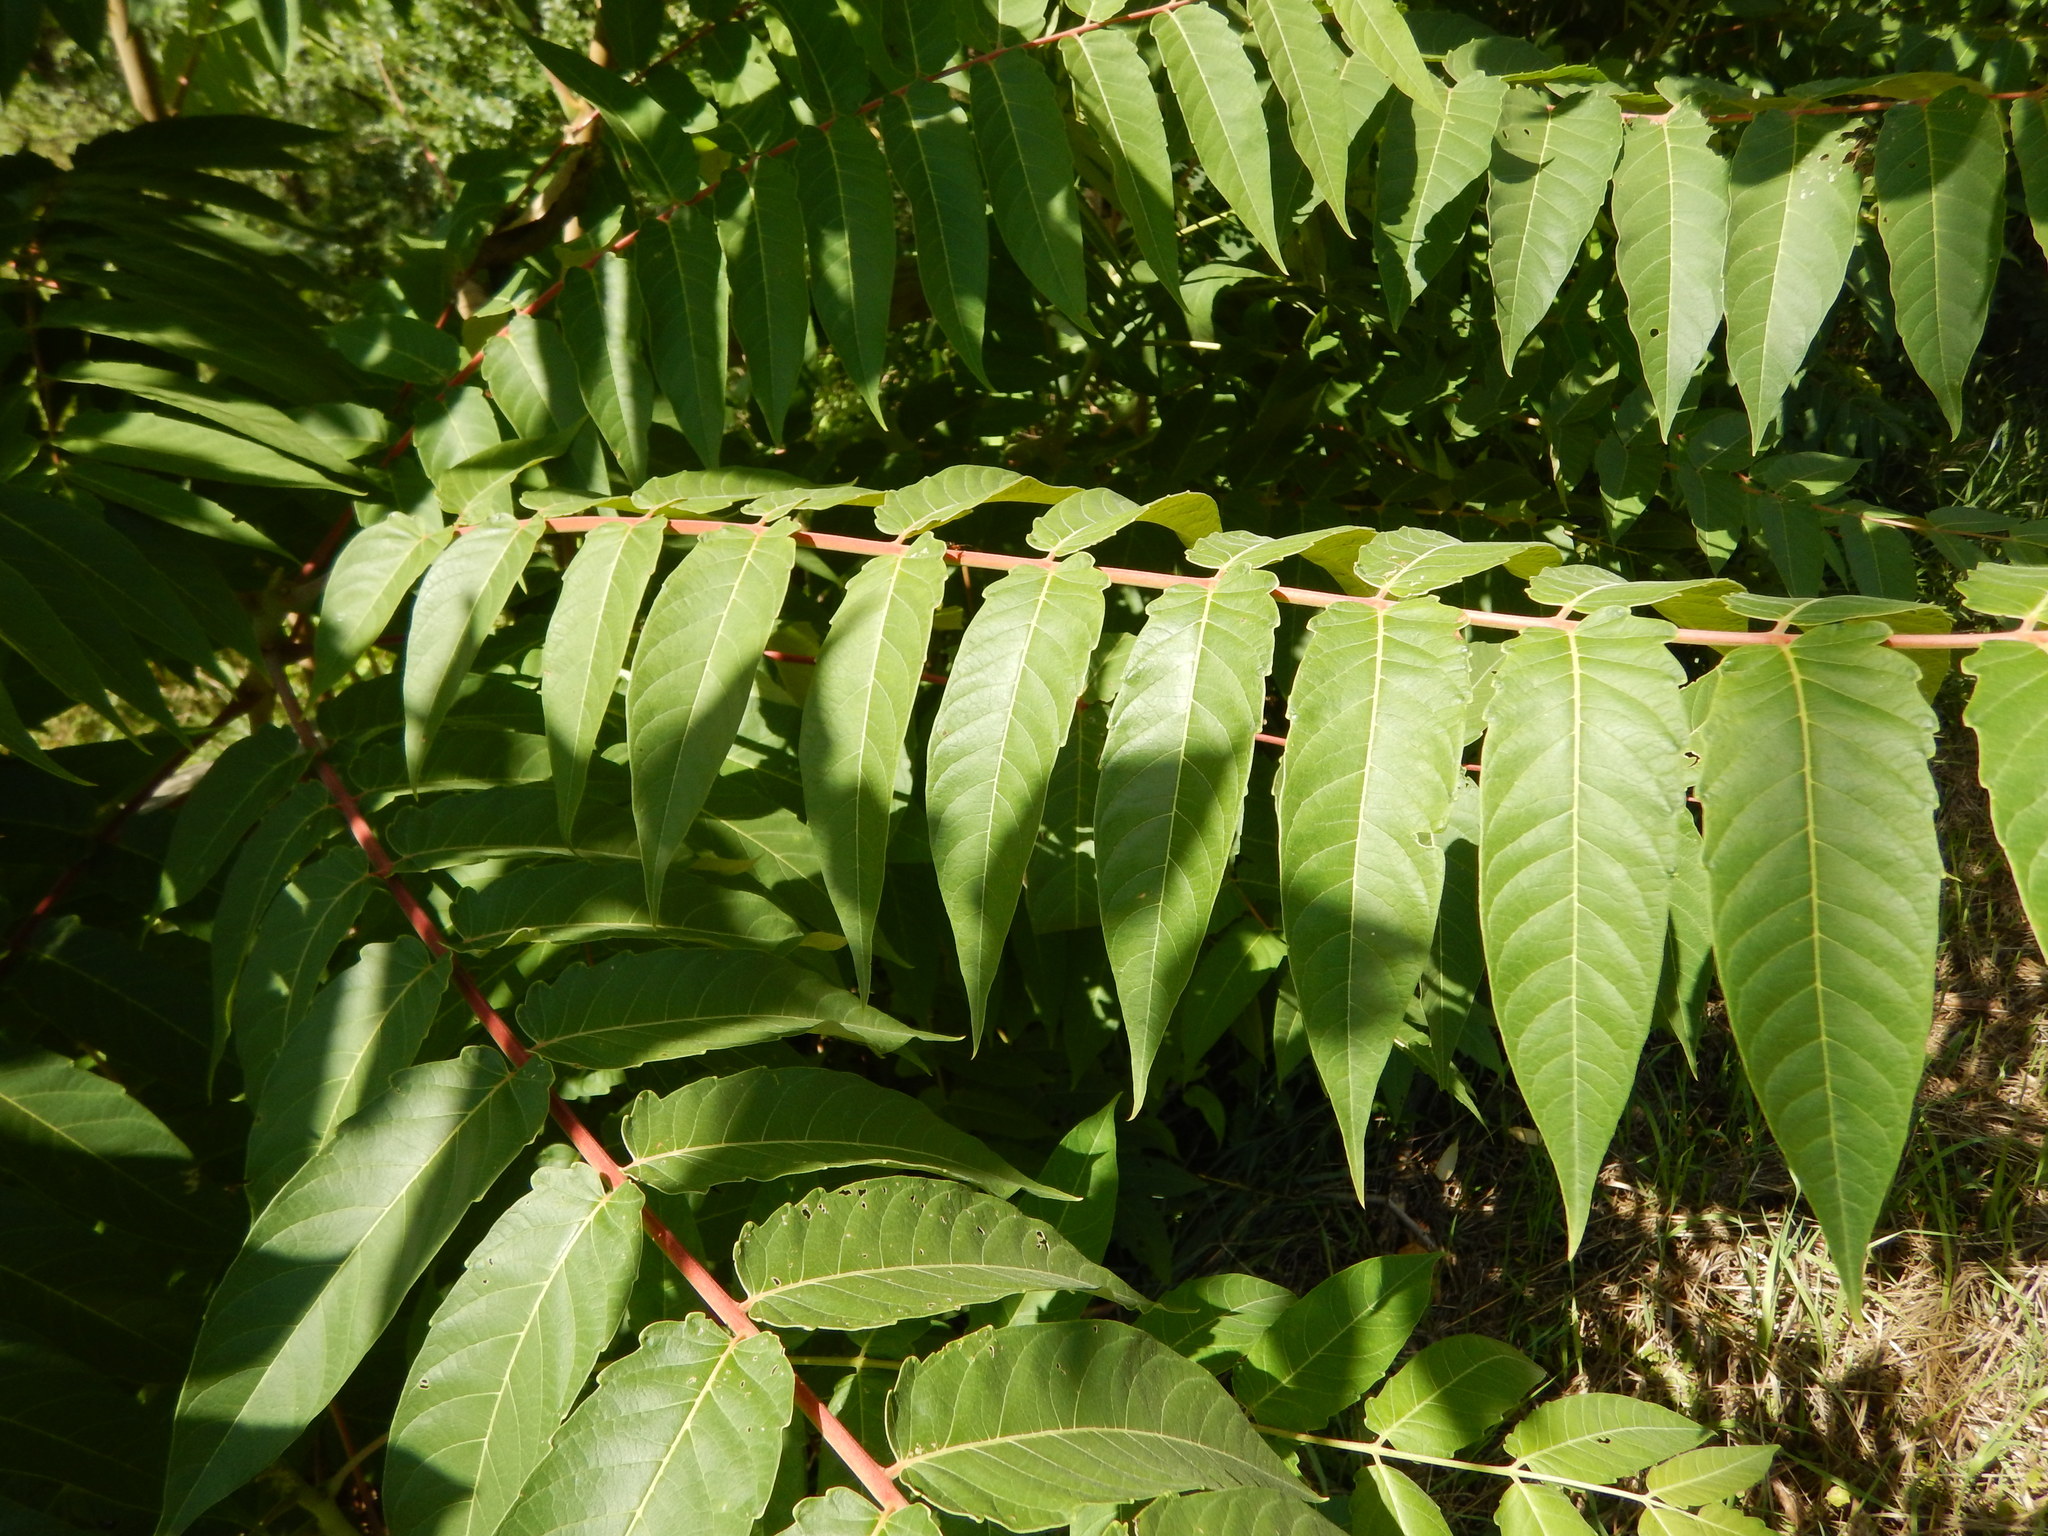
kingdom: Plantae
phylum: Tracheophyta
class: Magnoliopsida
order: Sapindales
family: Simaroubaceae
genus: Ailanthus
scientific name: Ailanthus altissima
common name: Tree-of-heaven
